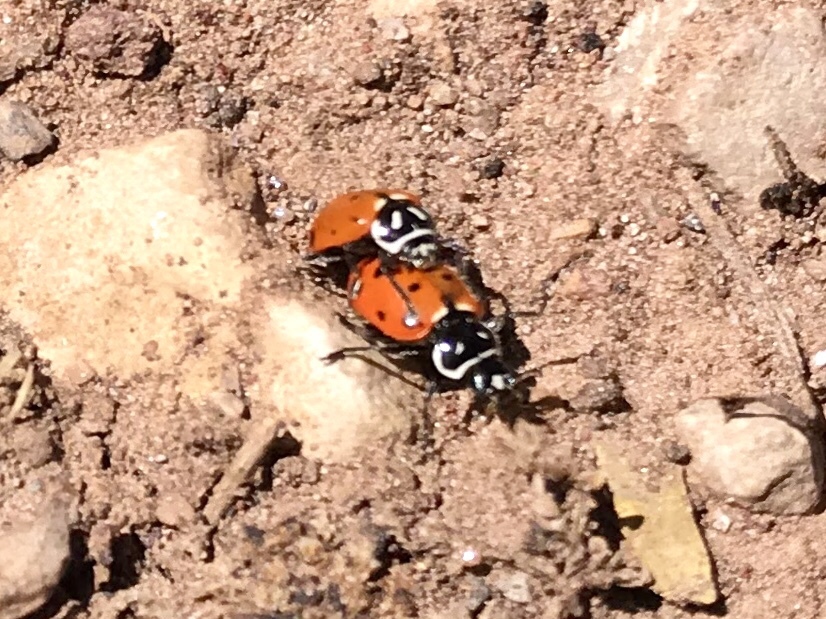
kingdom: Animalia
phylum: Arthropoda
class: Insecta
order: Coleoptera
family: Coccinellidae
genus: Hippodamia
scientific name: Hippodamia convergens
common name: Convergent lady beetle
